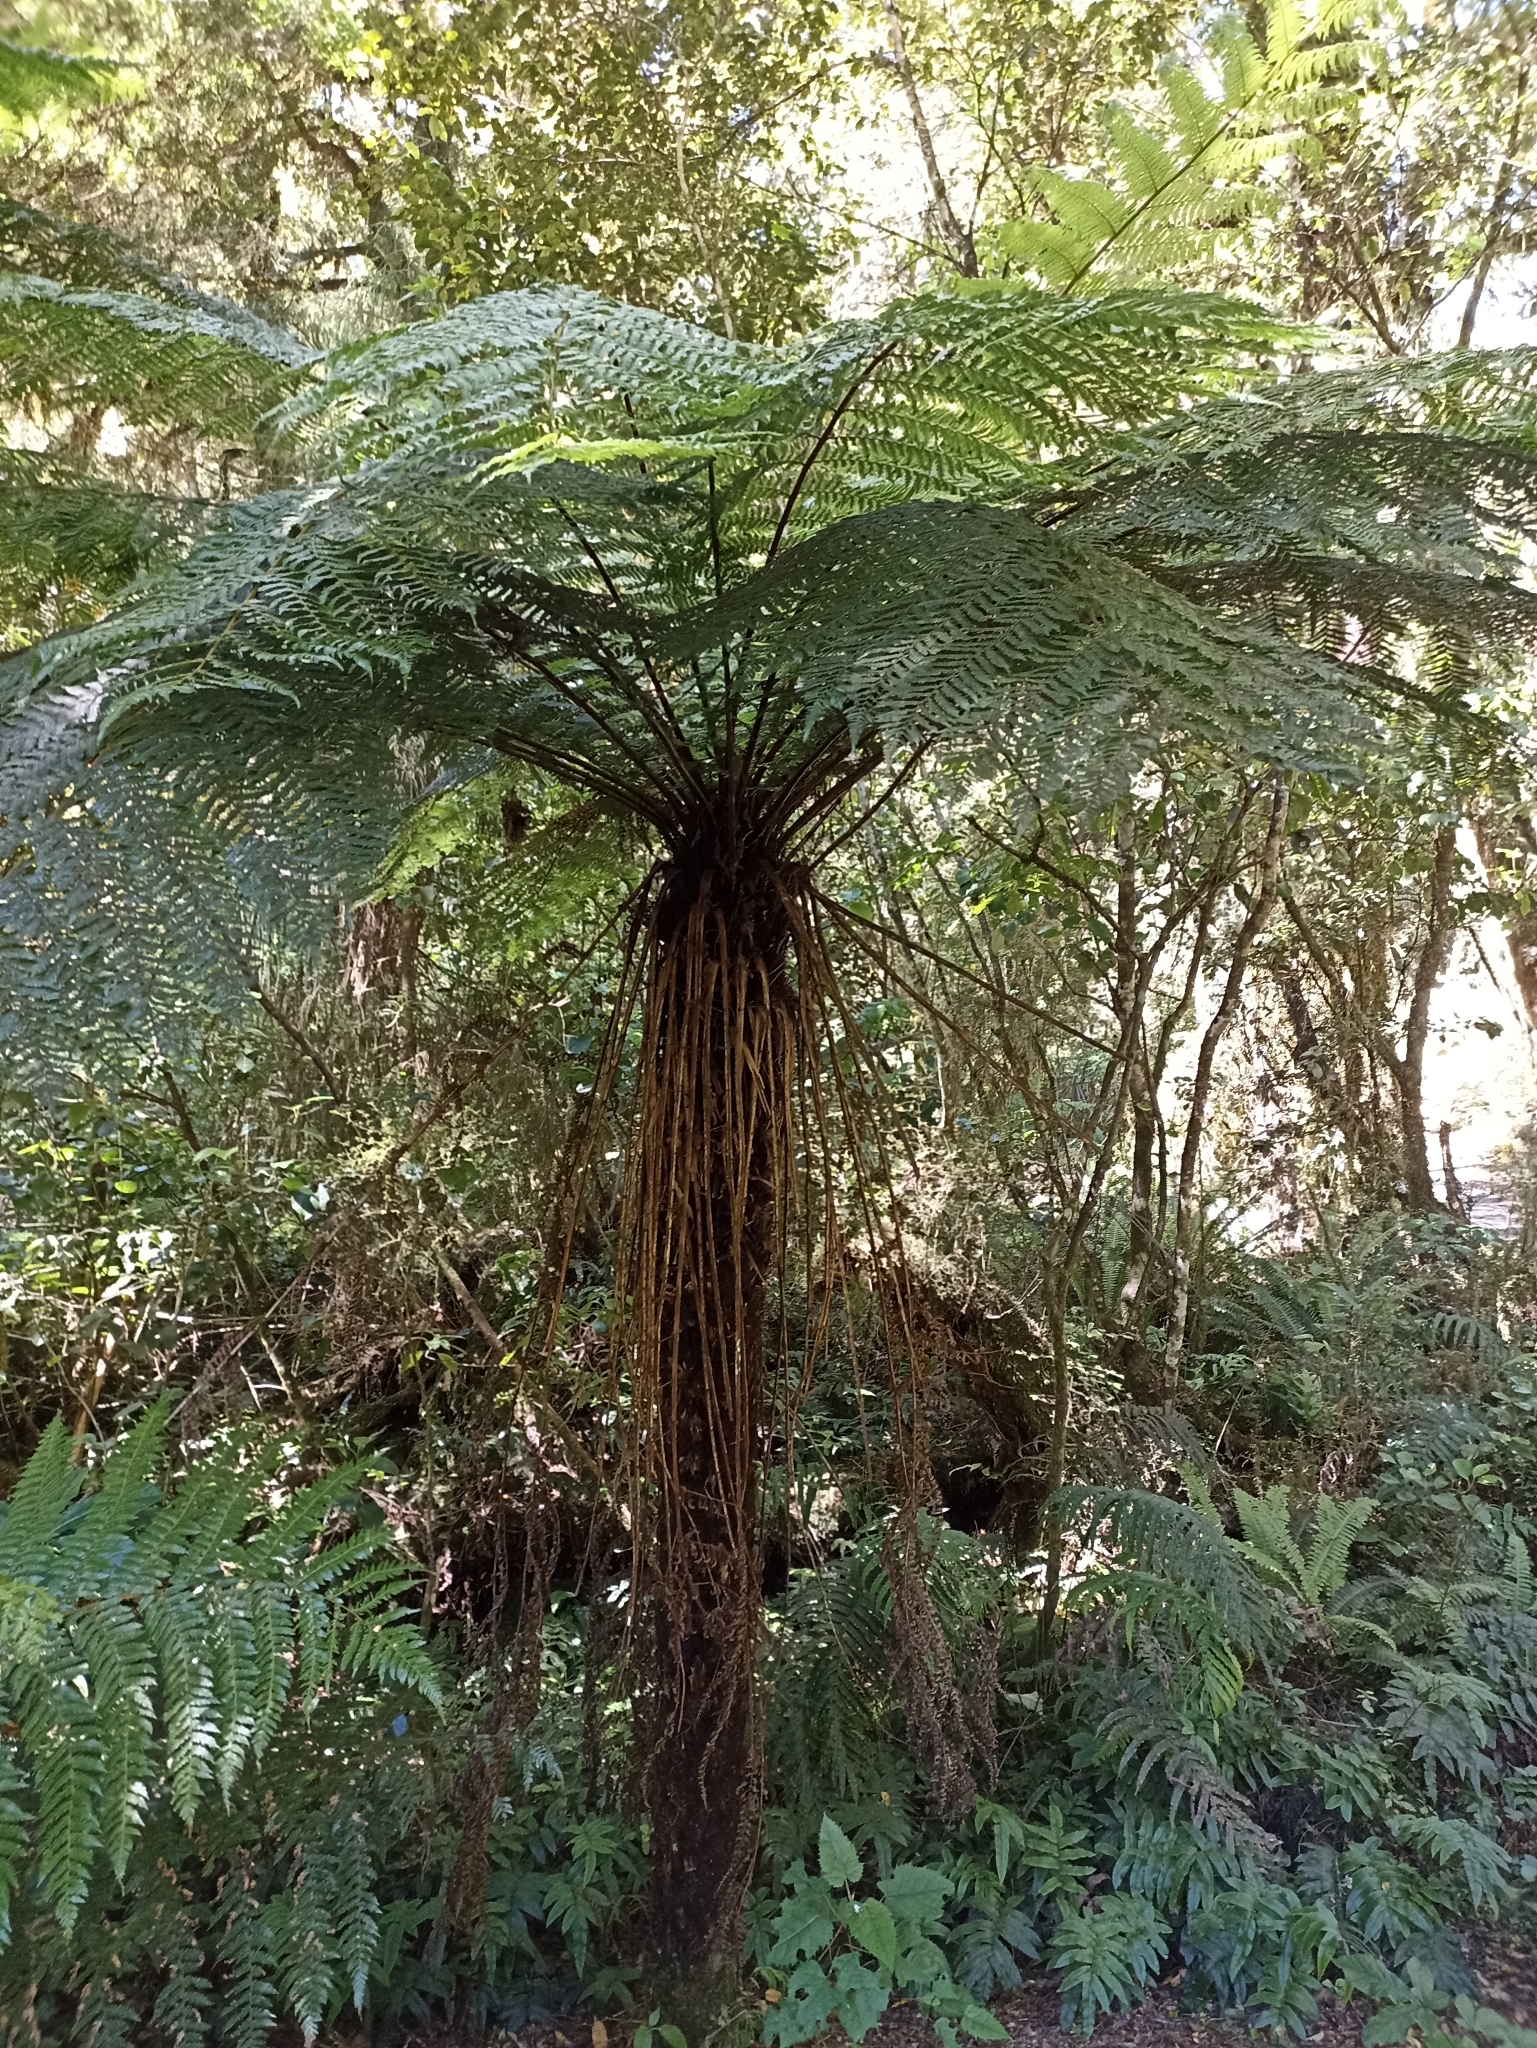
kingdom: Plantae
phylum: Tracheophyta
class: Polypodiopsida
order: Cyatheales
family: Cyatheaceae
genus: Alsophila
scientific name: Alsophila smithii
